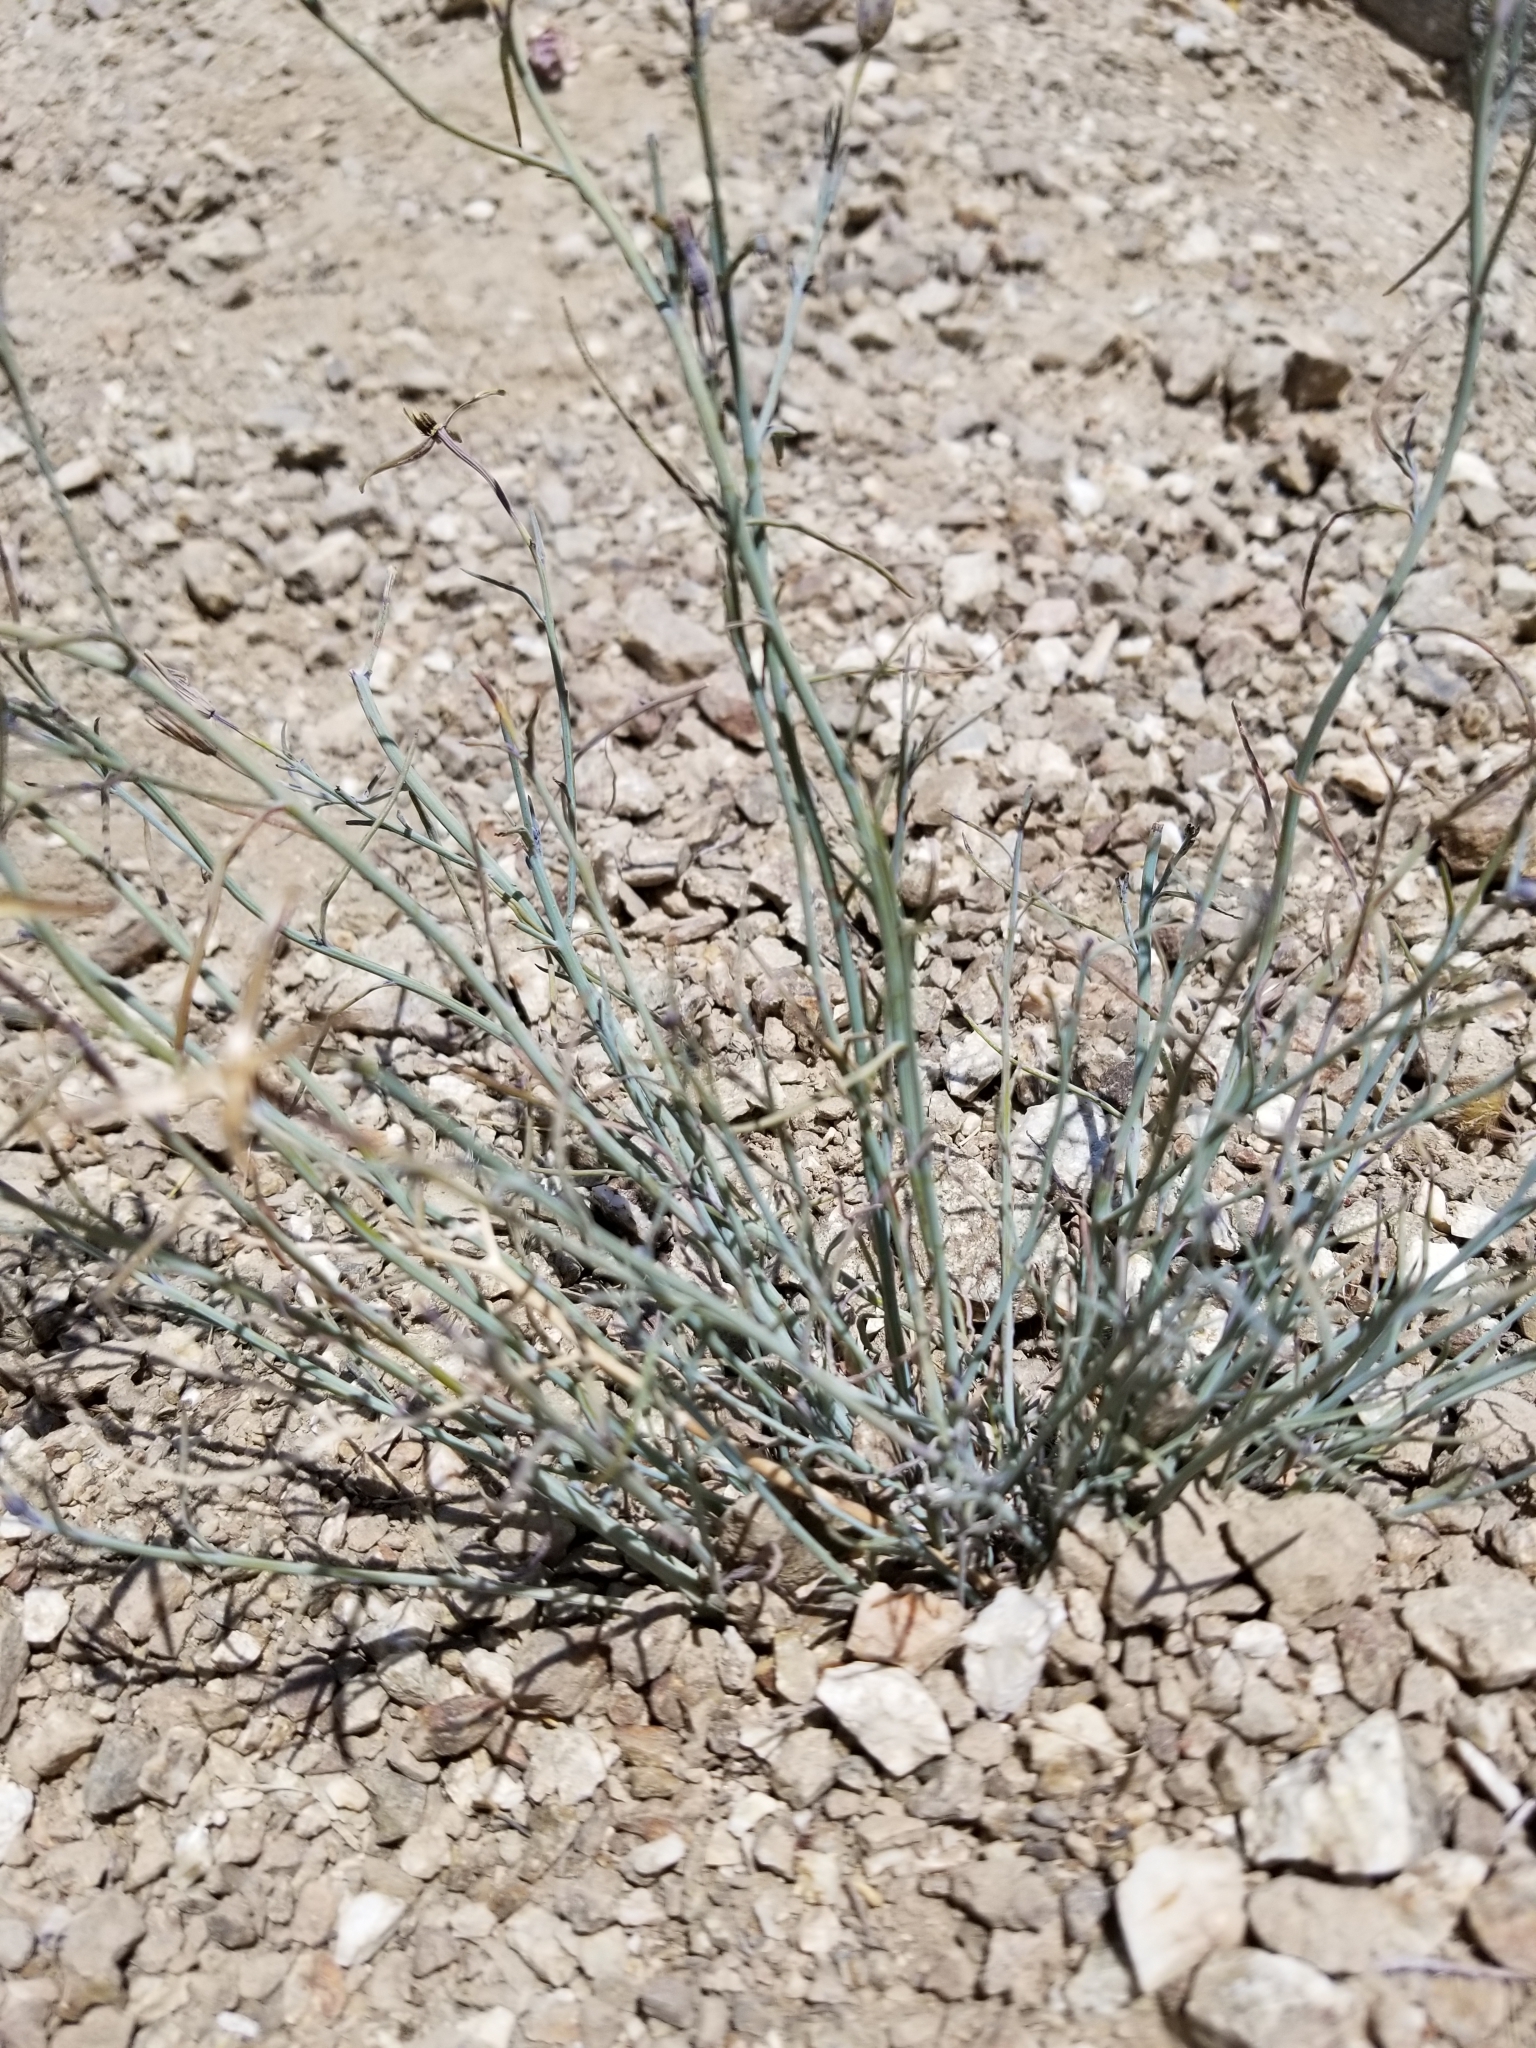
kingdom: Plantae
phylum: Tracheophyta
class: Magnoliopsida
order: Asterales
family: Asteraceae
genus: Porophyllum
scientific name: Porophyllum gracile
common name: Odora
